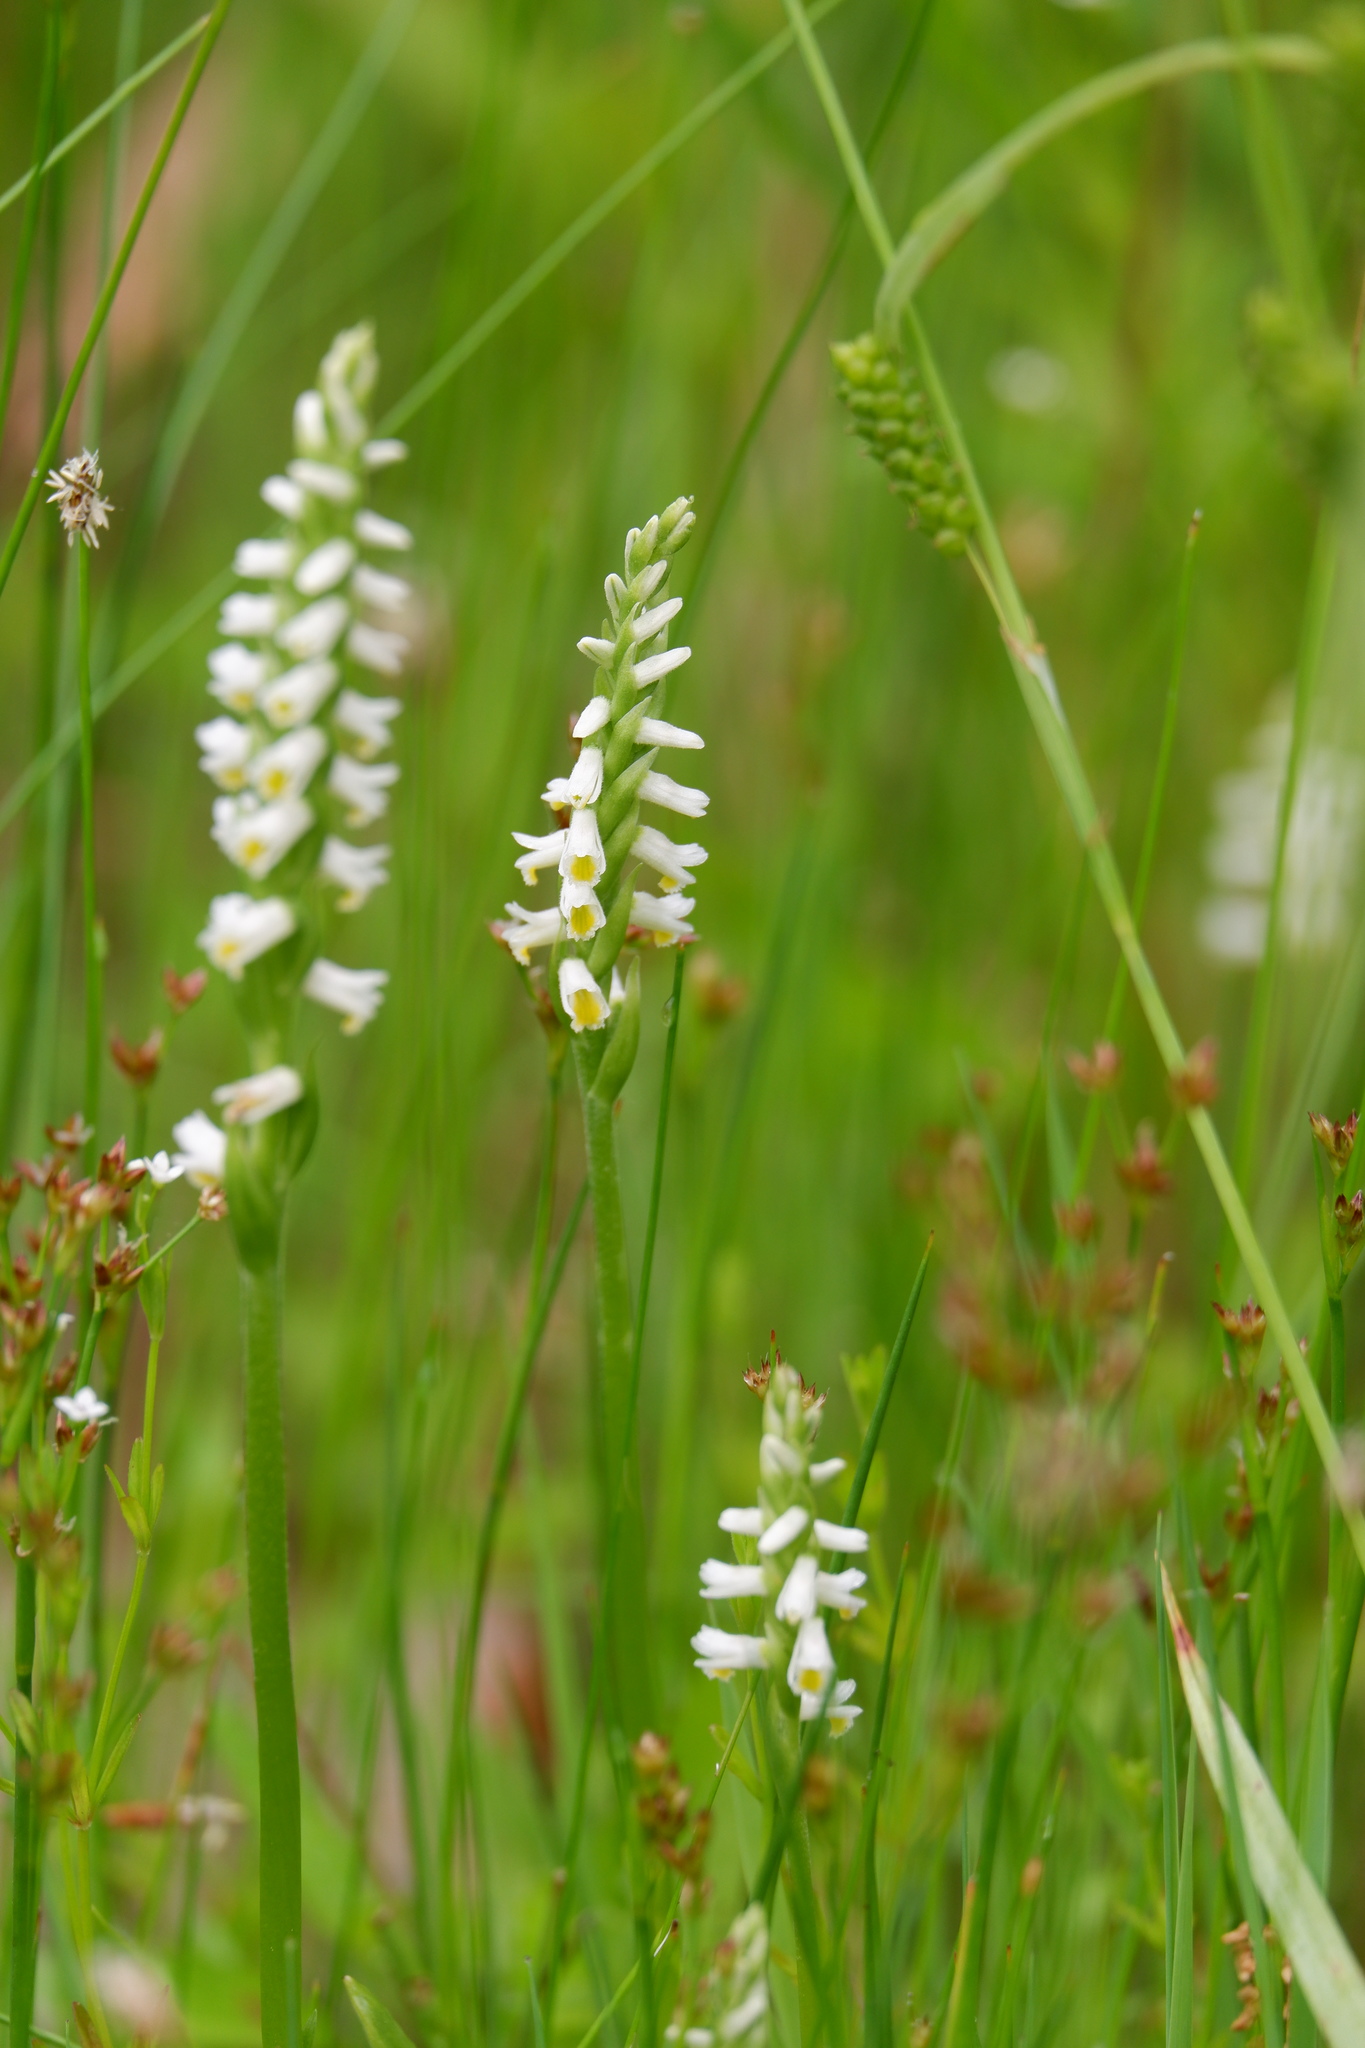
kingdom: Plantae
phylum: Tracheophyta
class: Liliopsida
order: Asparagales
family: Orchidaceae
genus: Spiranthes
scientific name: Spiranthes lucida
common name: Broad-leaved ladies'-tresses
